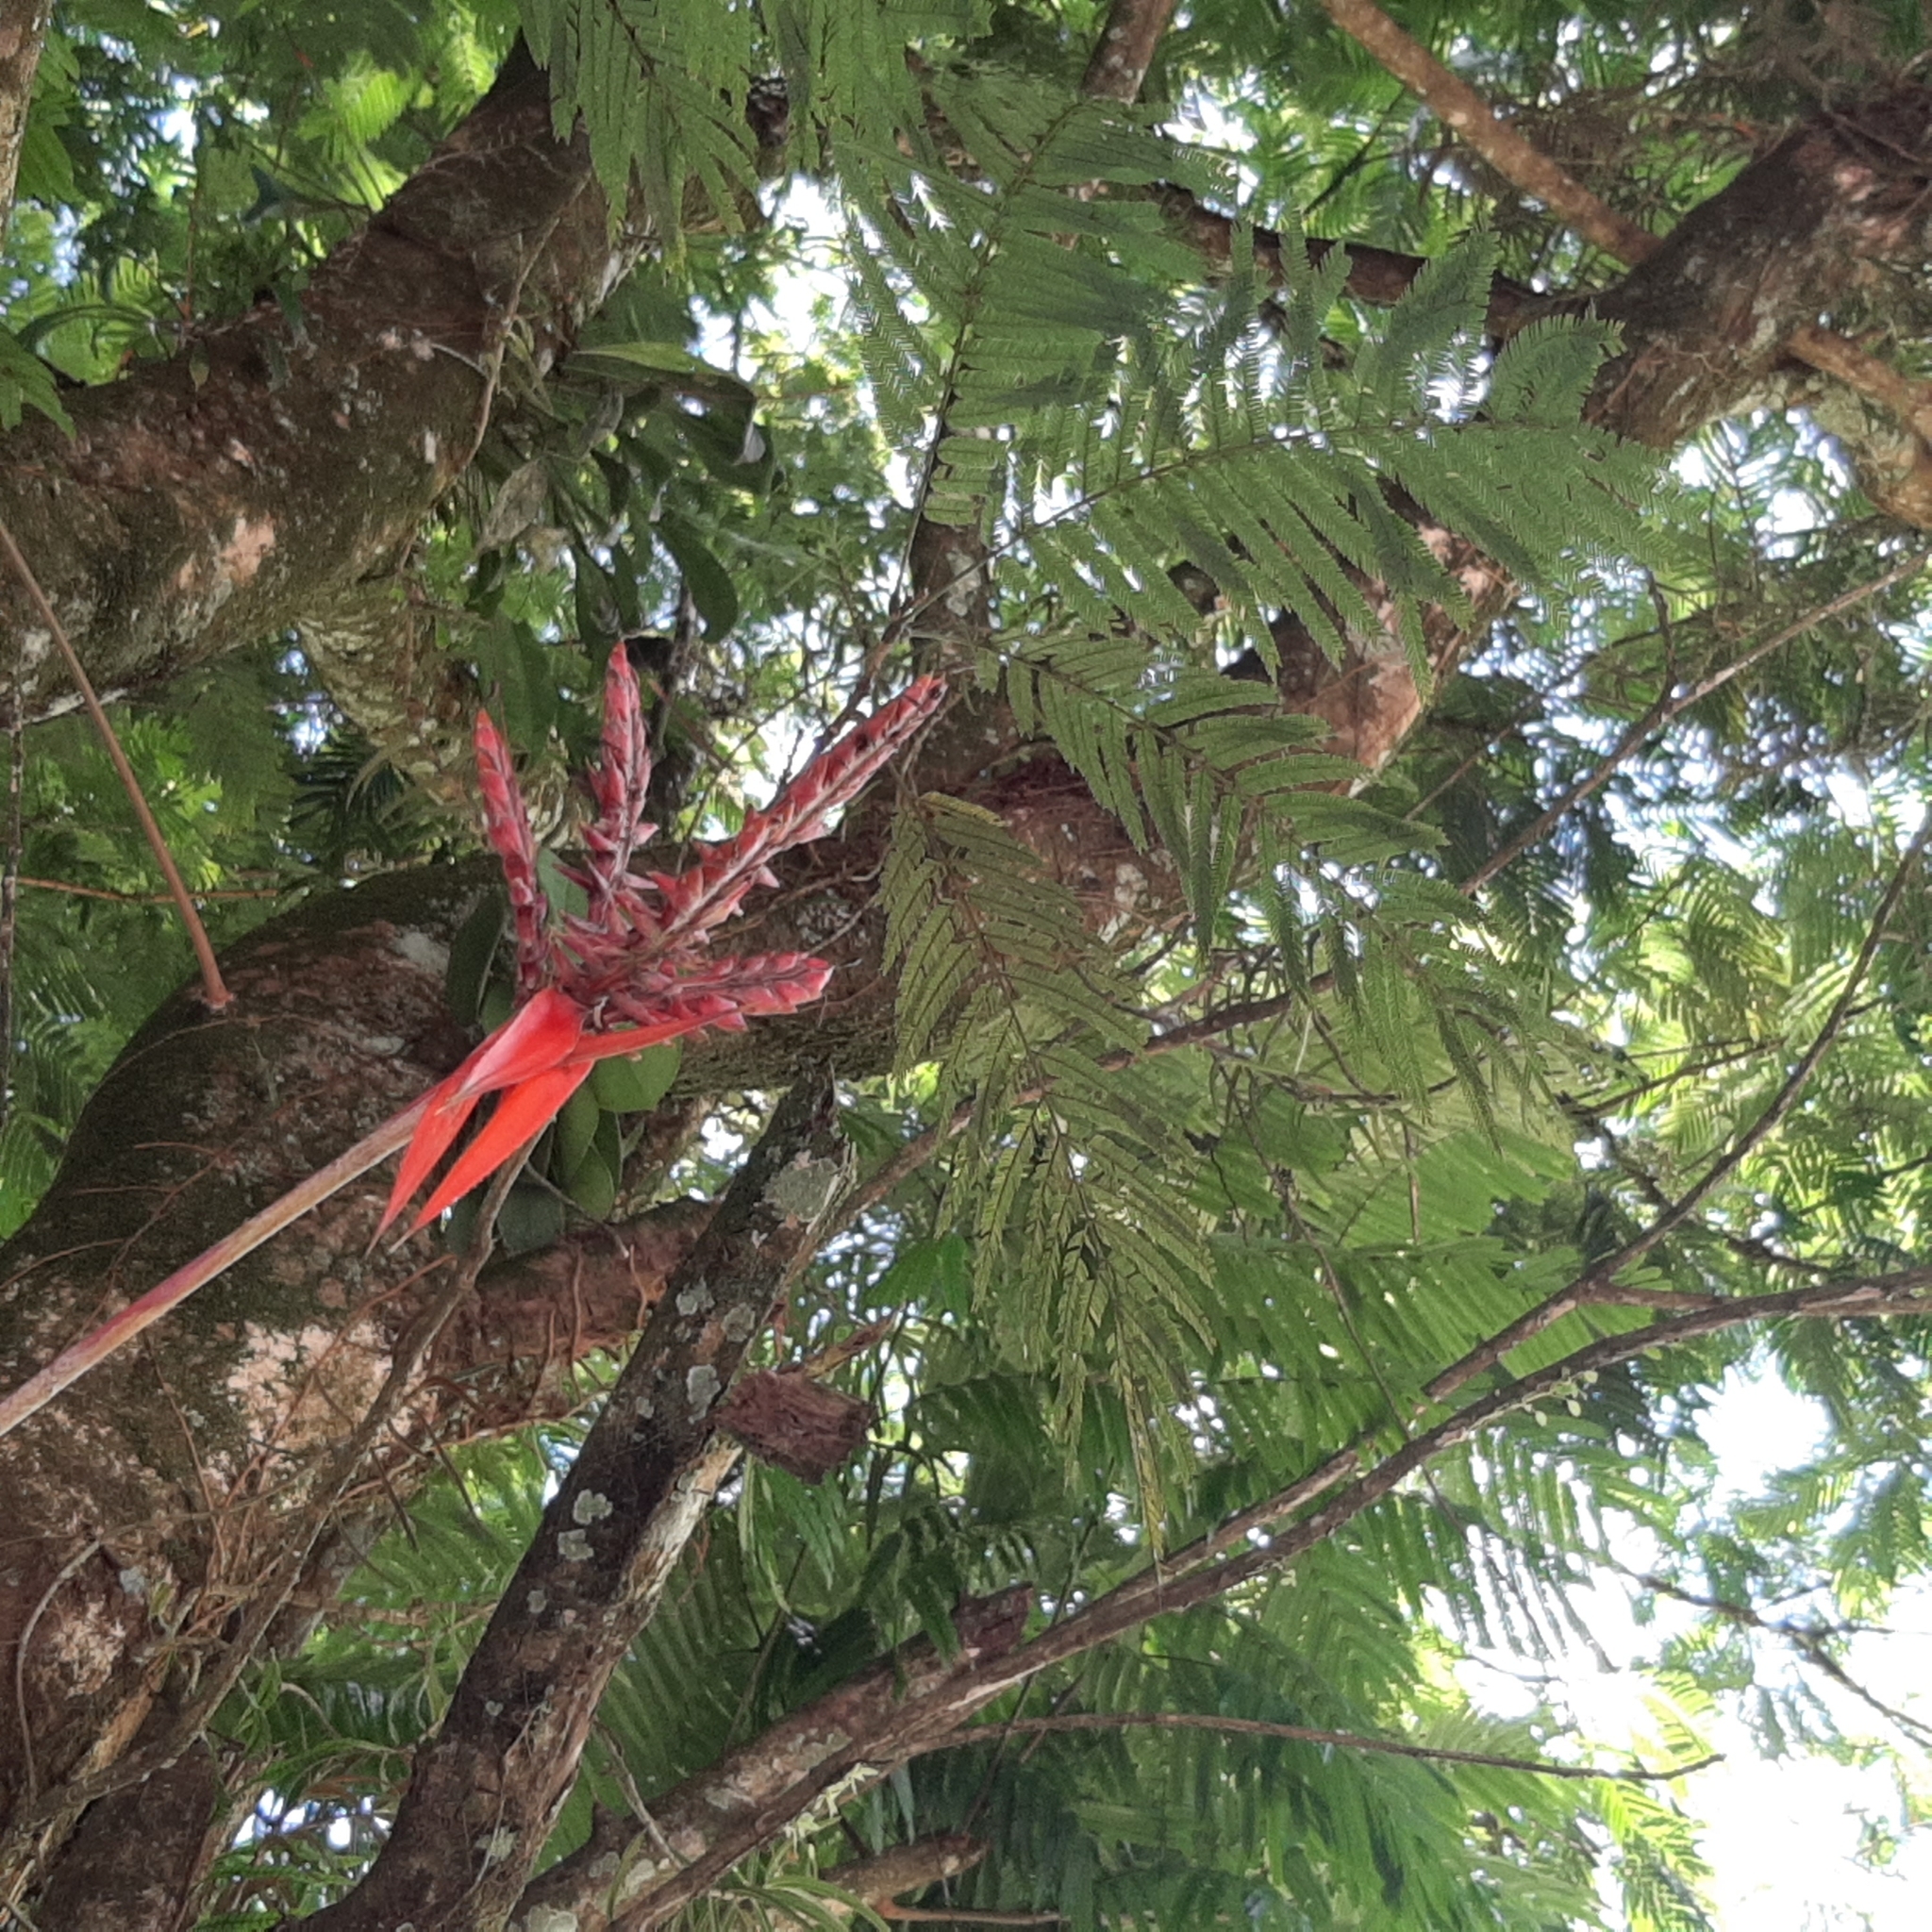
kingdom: Plantae
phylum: Tracheophyta
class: Liliopsida
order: Poales
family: Bromeliaceae
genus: Aechmea
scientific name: Aechmea tillandsioides
